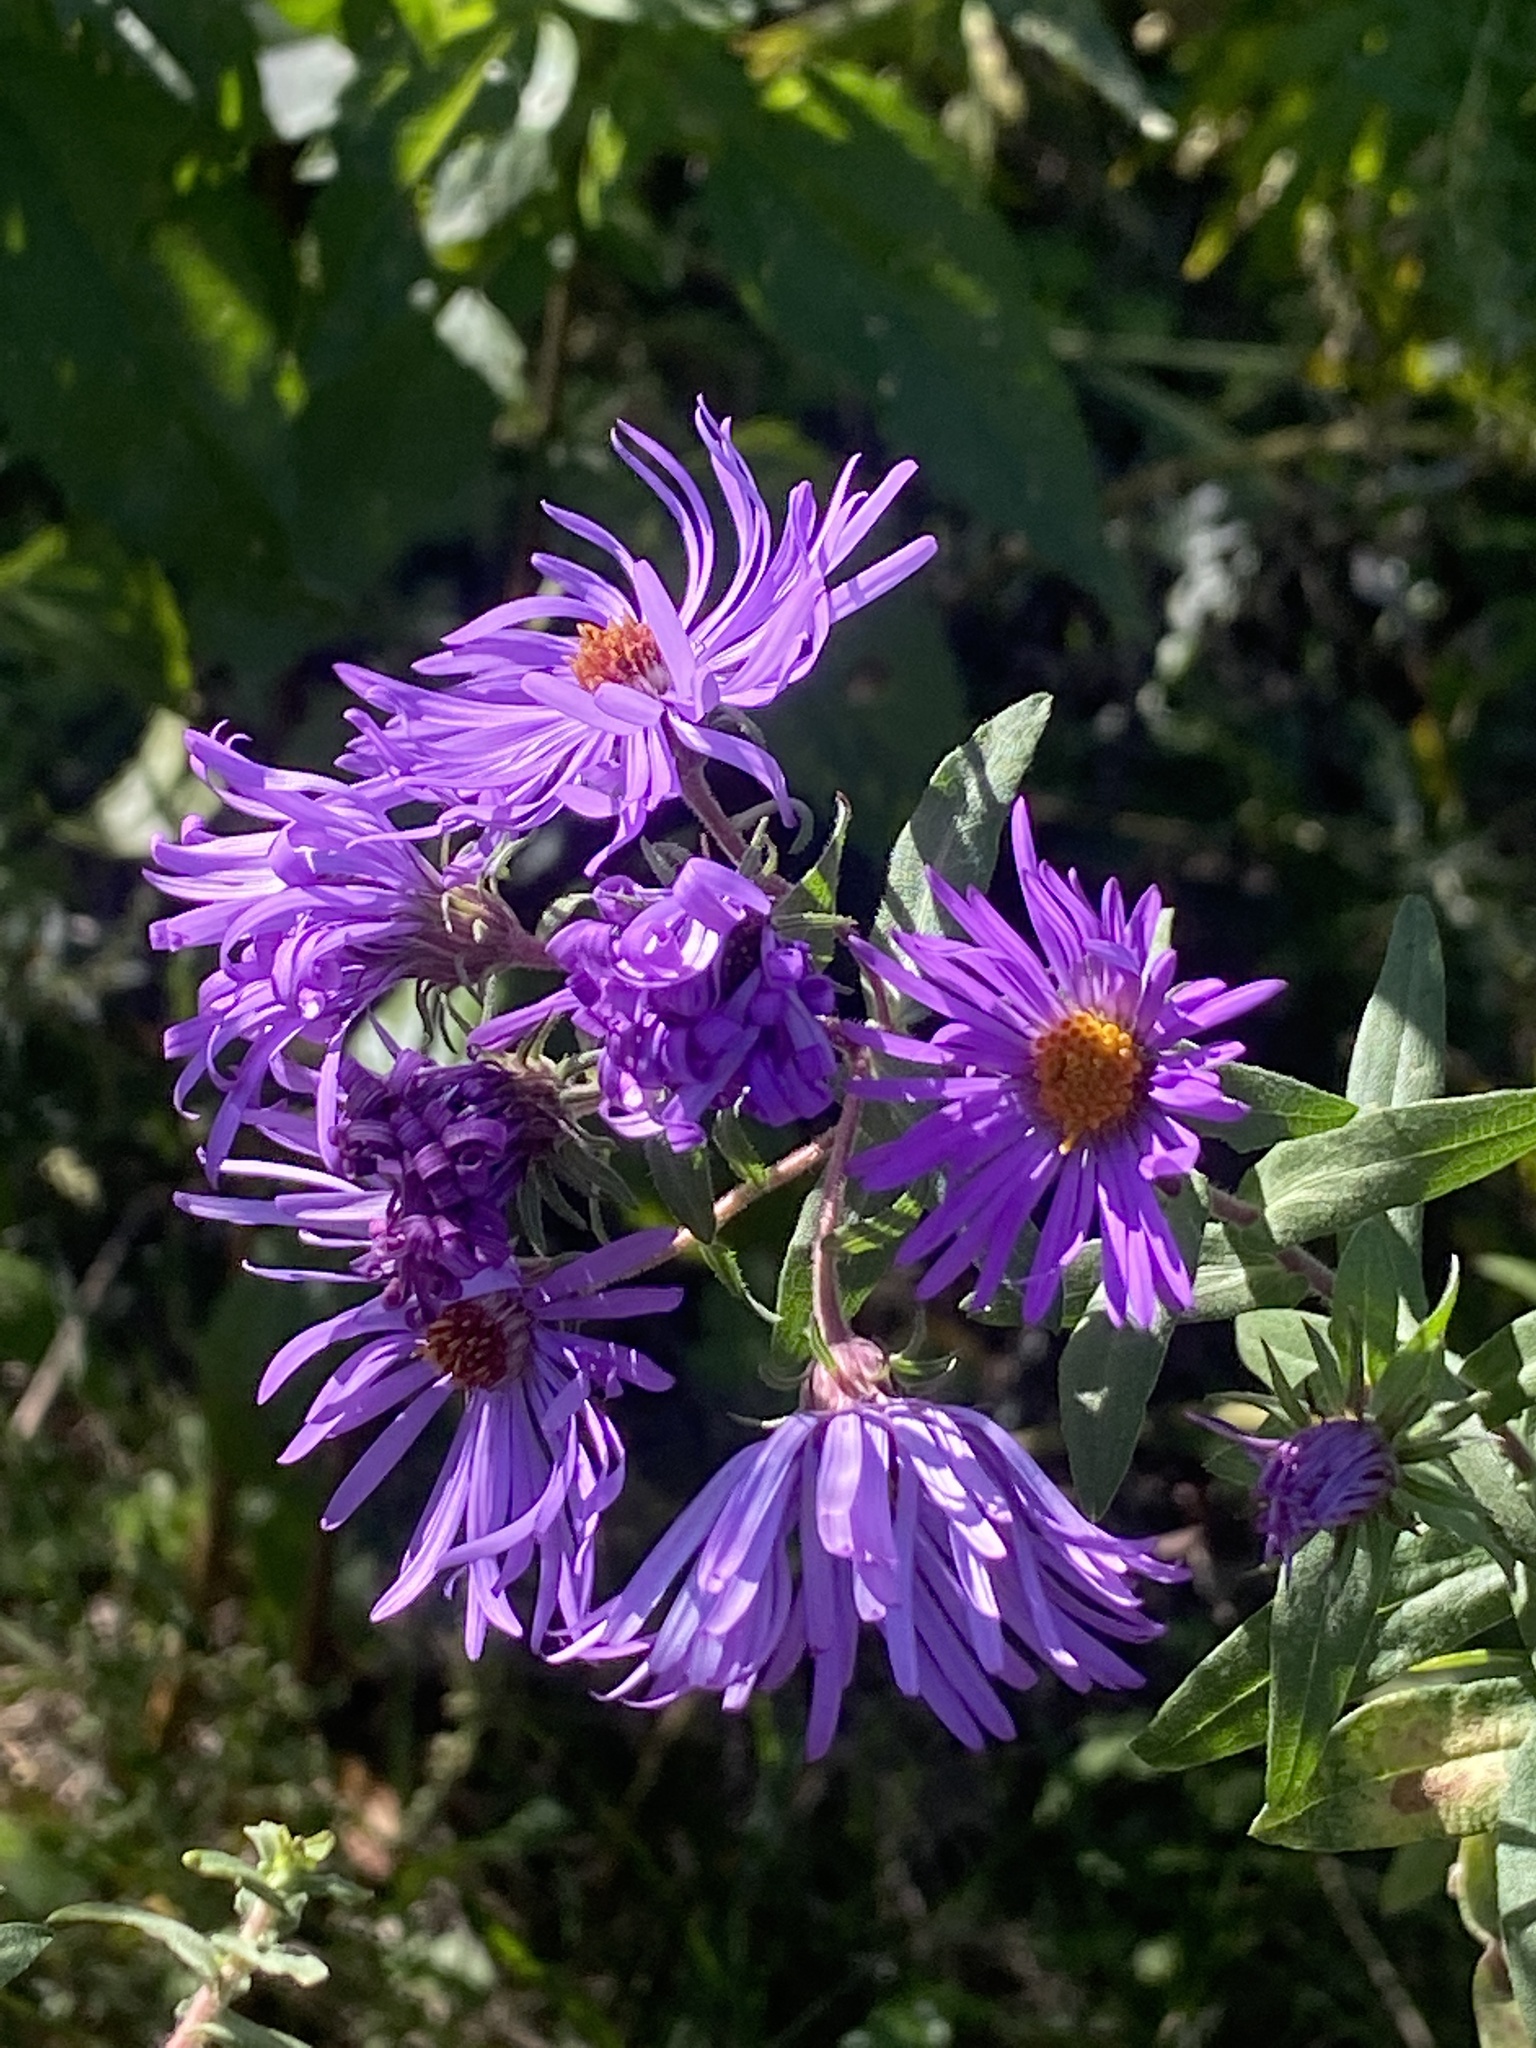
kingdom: Plantae
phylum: Tracheophyta
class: Magnoliopsida
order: Asterales
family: Asteraceae
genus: Symphyotrichum
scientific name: Symphyotrichum novae-angliae
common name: Michaelmas daisy
